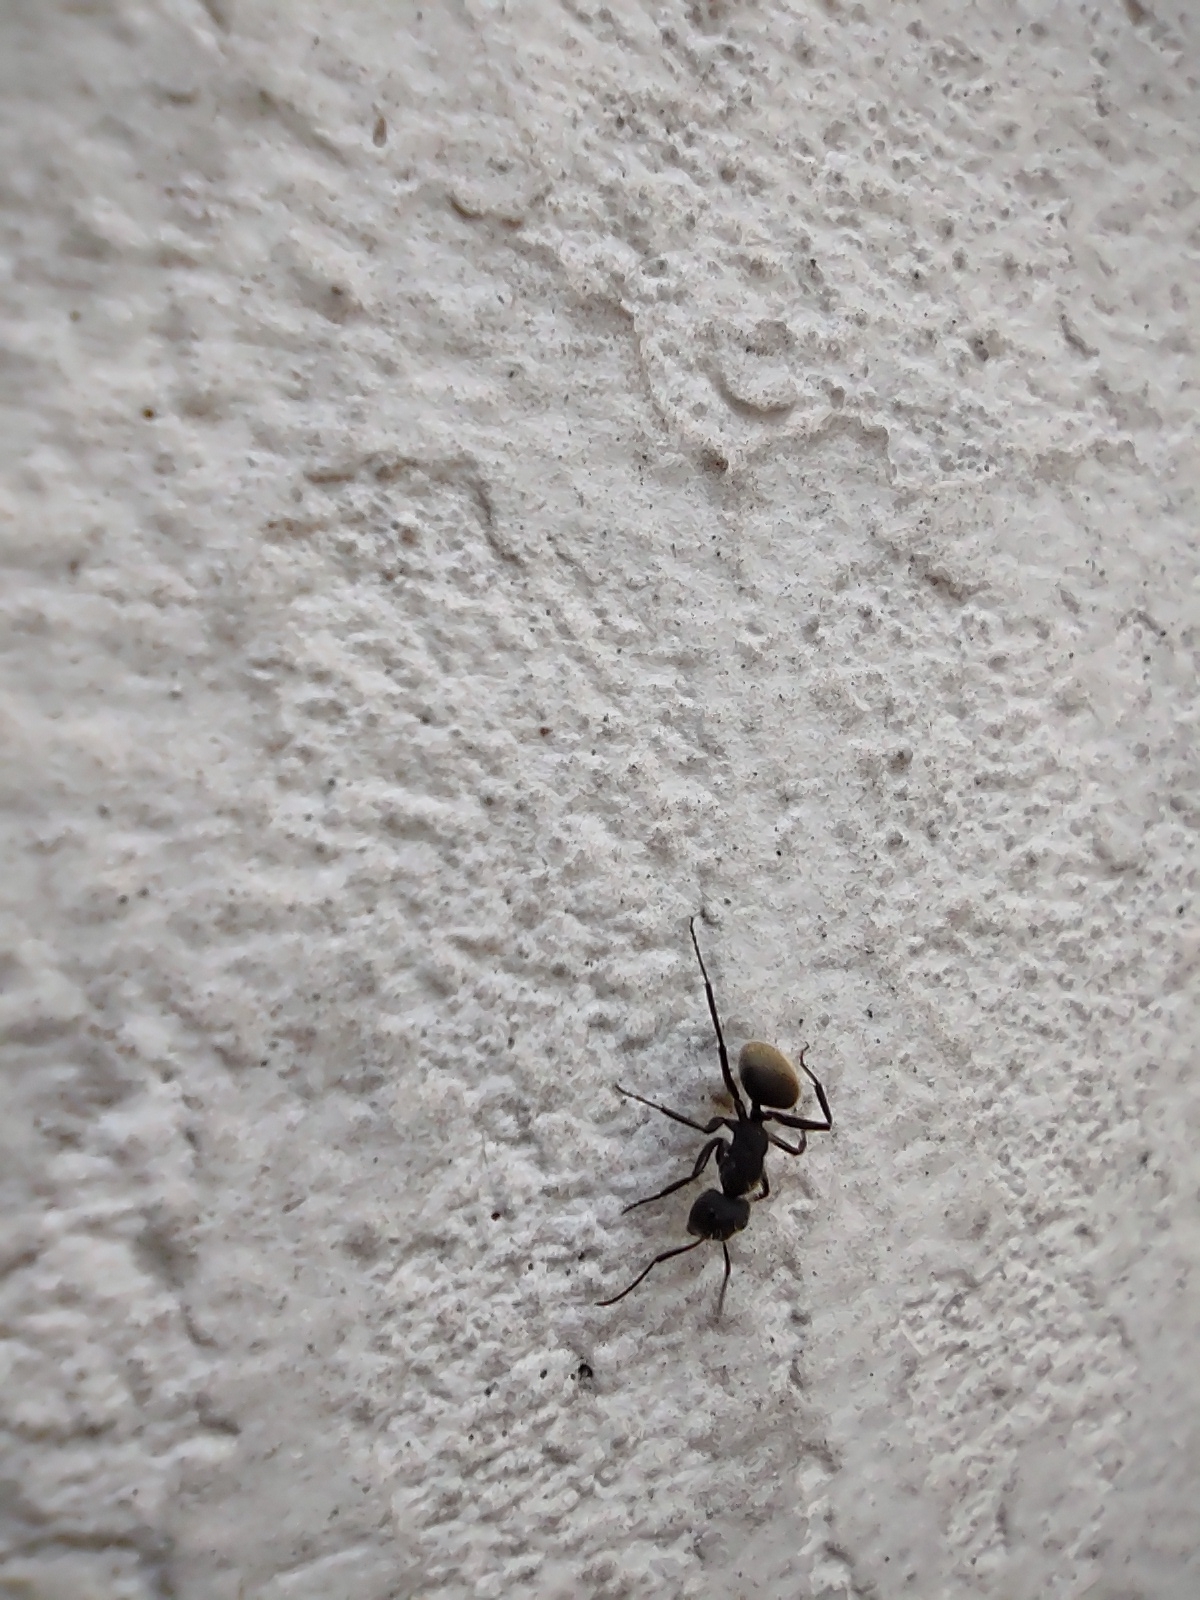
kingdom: Animalia
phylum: Arthropoda
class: Insecta
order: Hymenoptera
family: Formicidae
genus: Camponotus
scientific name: Camponotus mus
